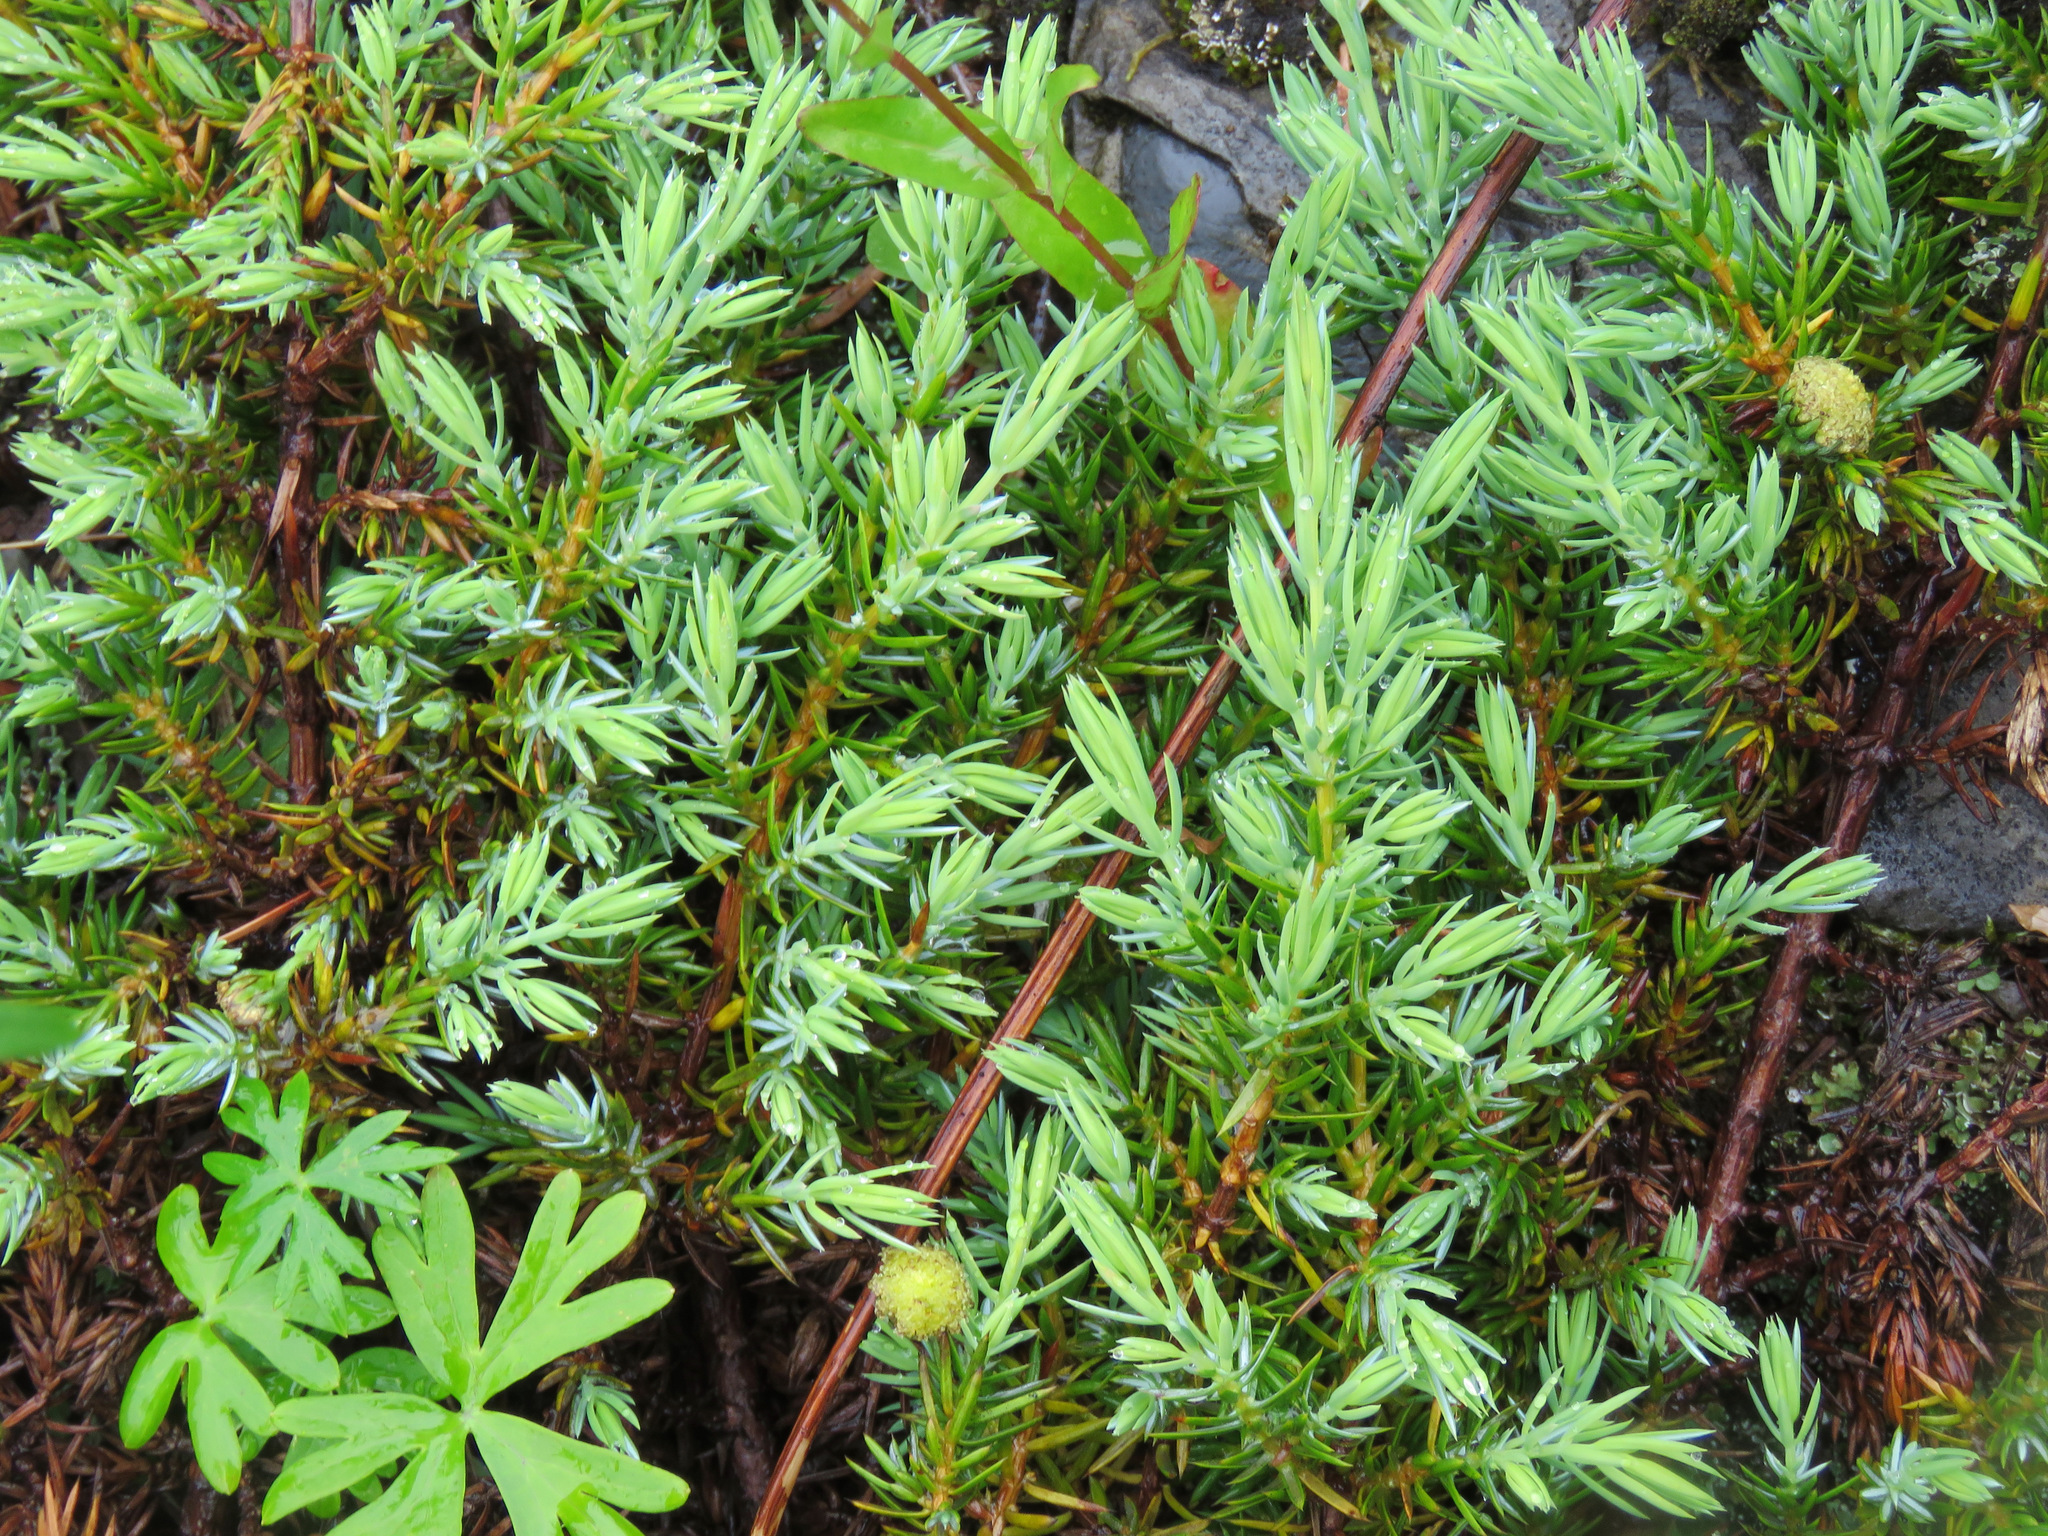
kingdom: Plantae
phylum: Tracheophyta
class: Pinopsida
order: Pinales
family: Cupressaceae
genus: Juniperus
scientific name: Juniperus communis
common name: Common juniper
